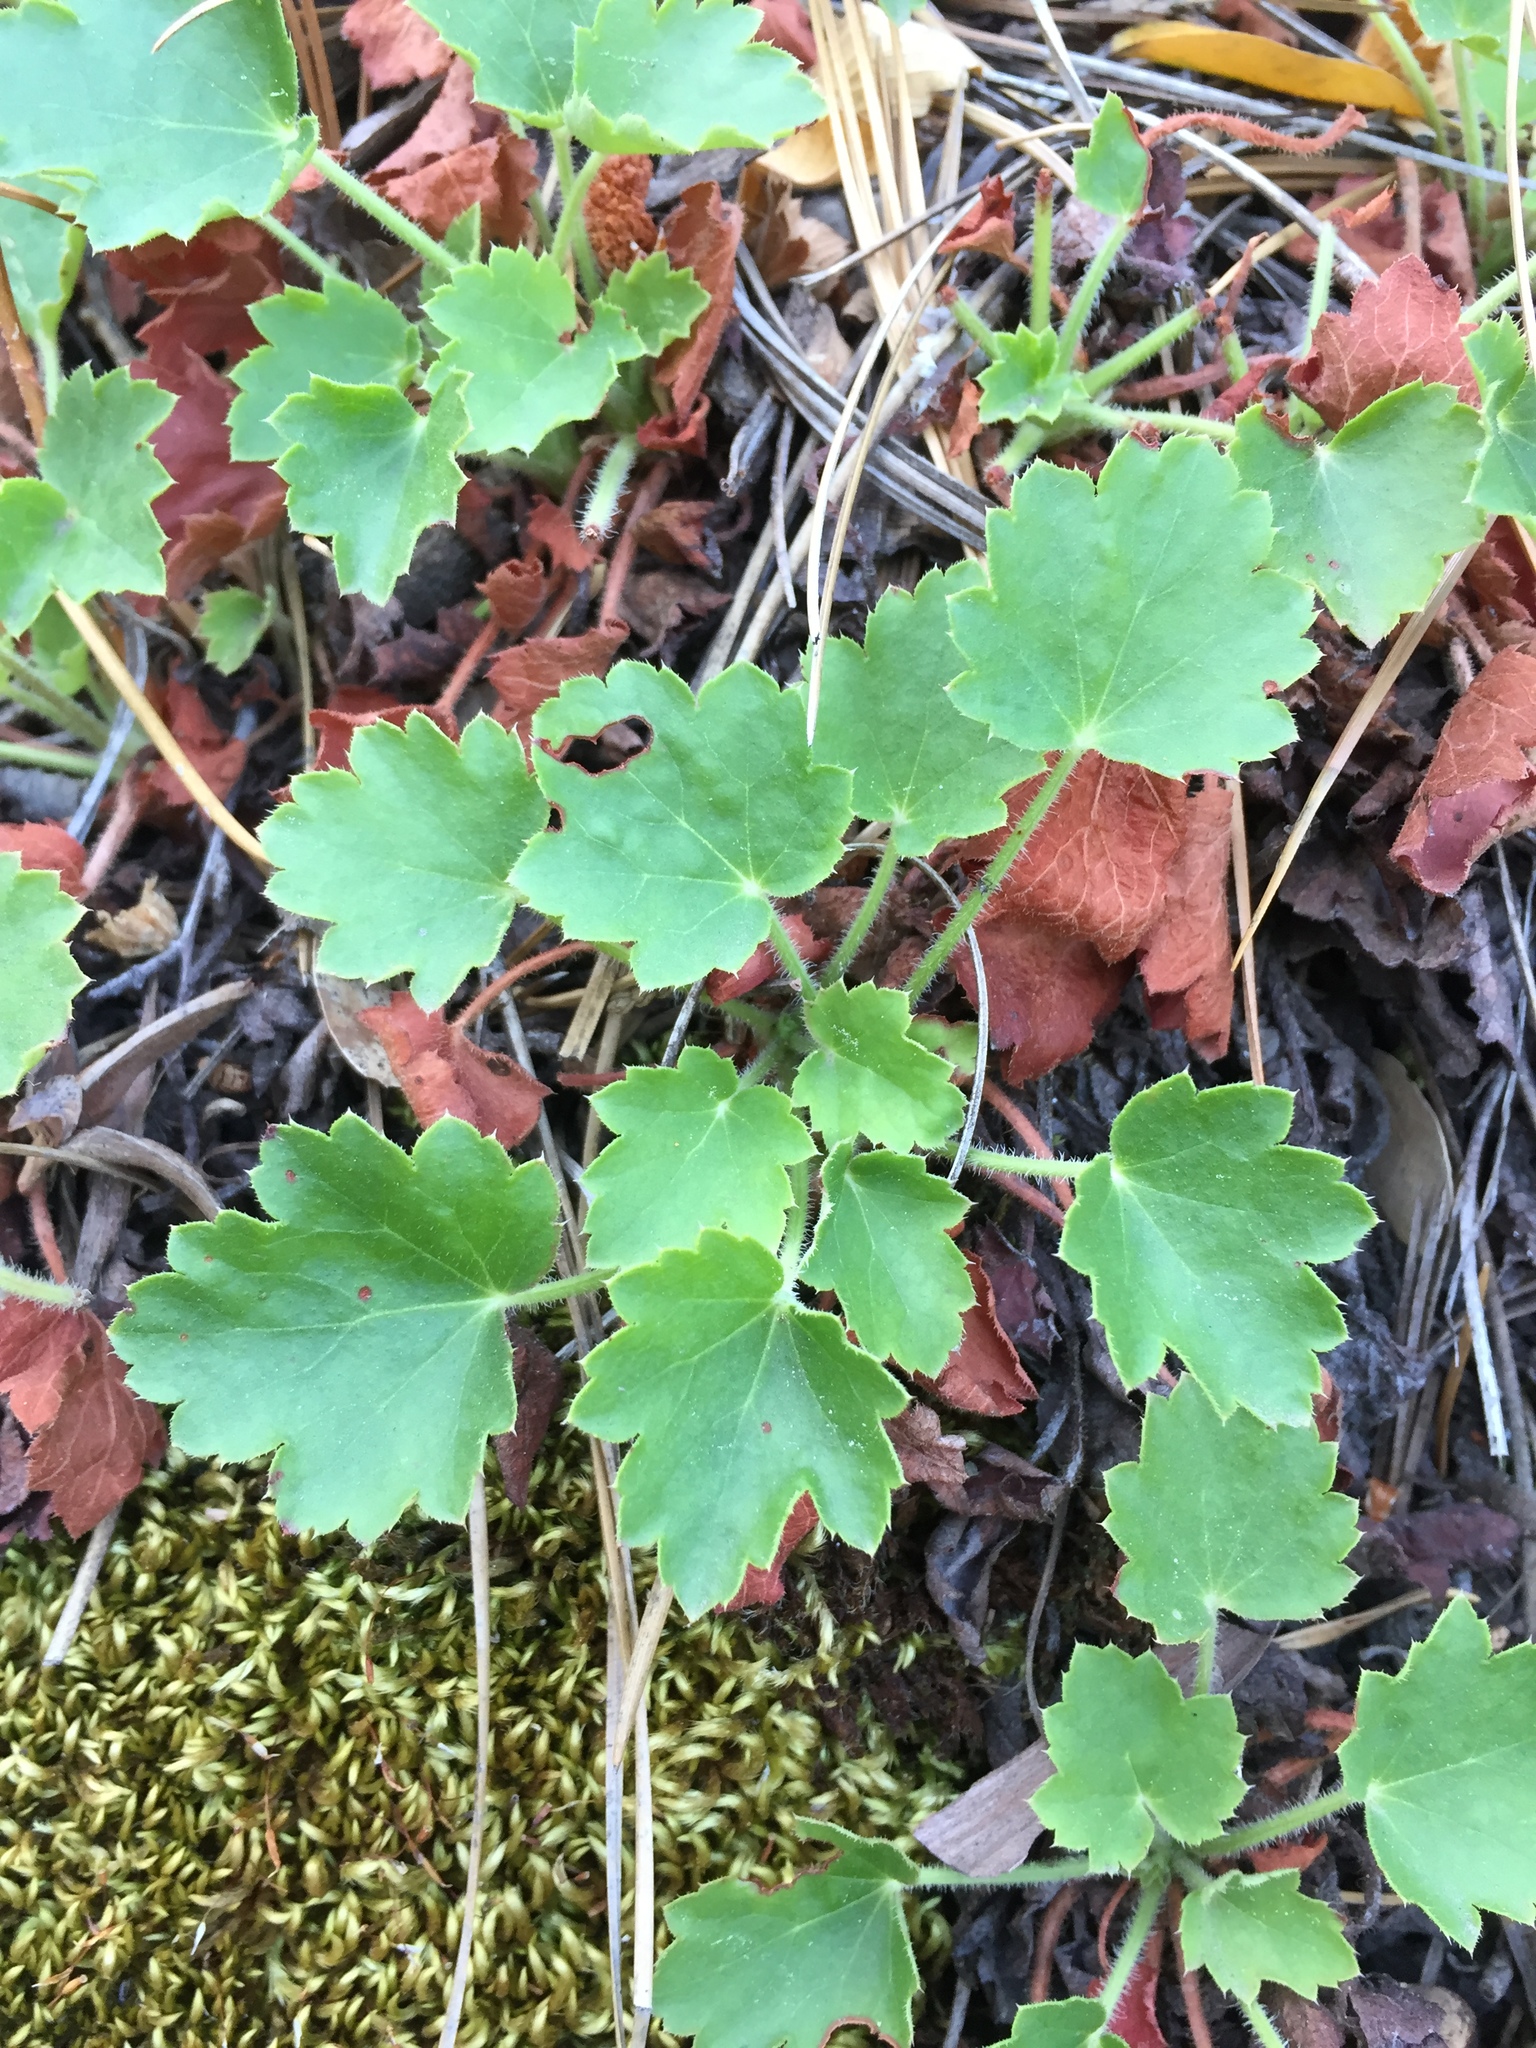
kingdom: Plantae
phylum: Tracheophyta
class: Magnoliopsida
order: Saxifragales
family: Saxifragaceae
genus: Heuchera
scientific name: Heuchera rubescens
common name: Jack-o'the-rocks
